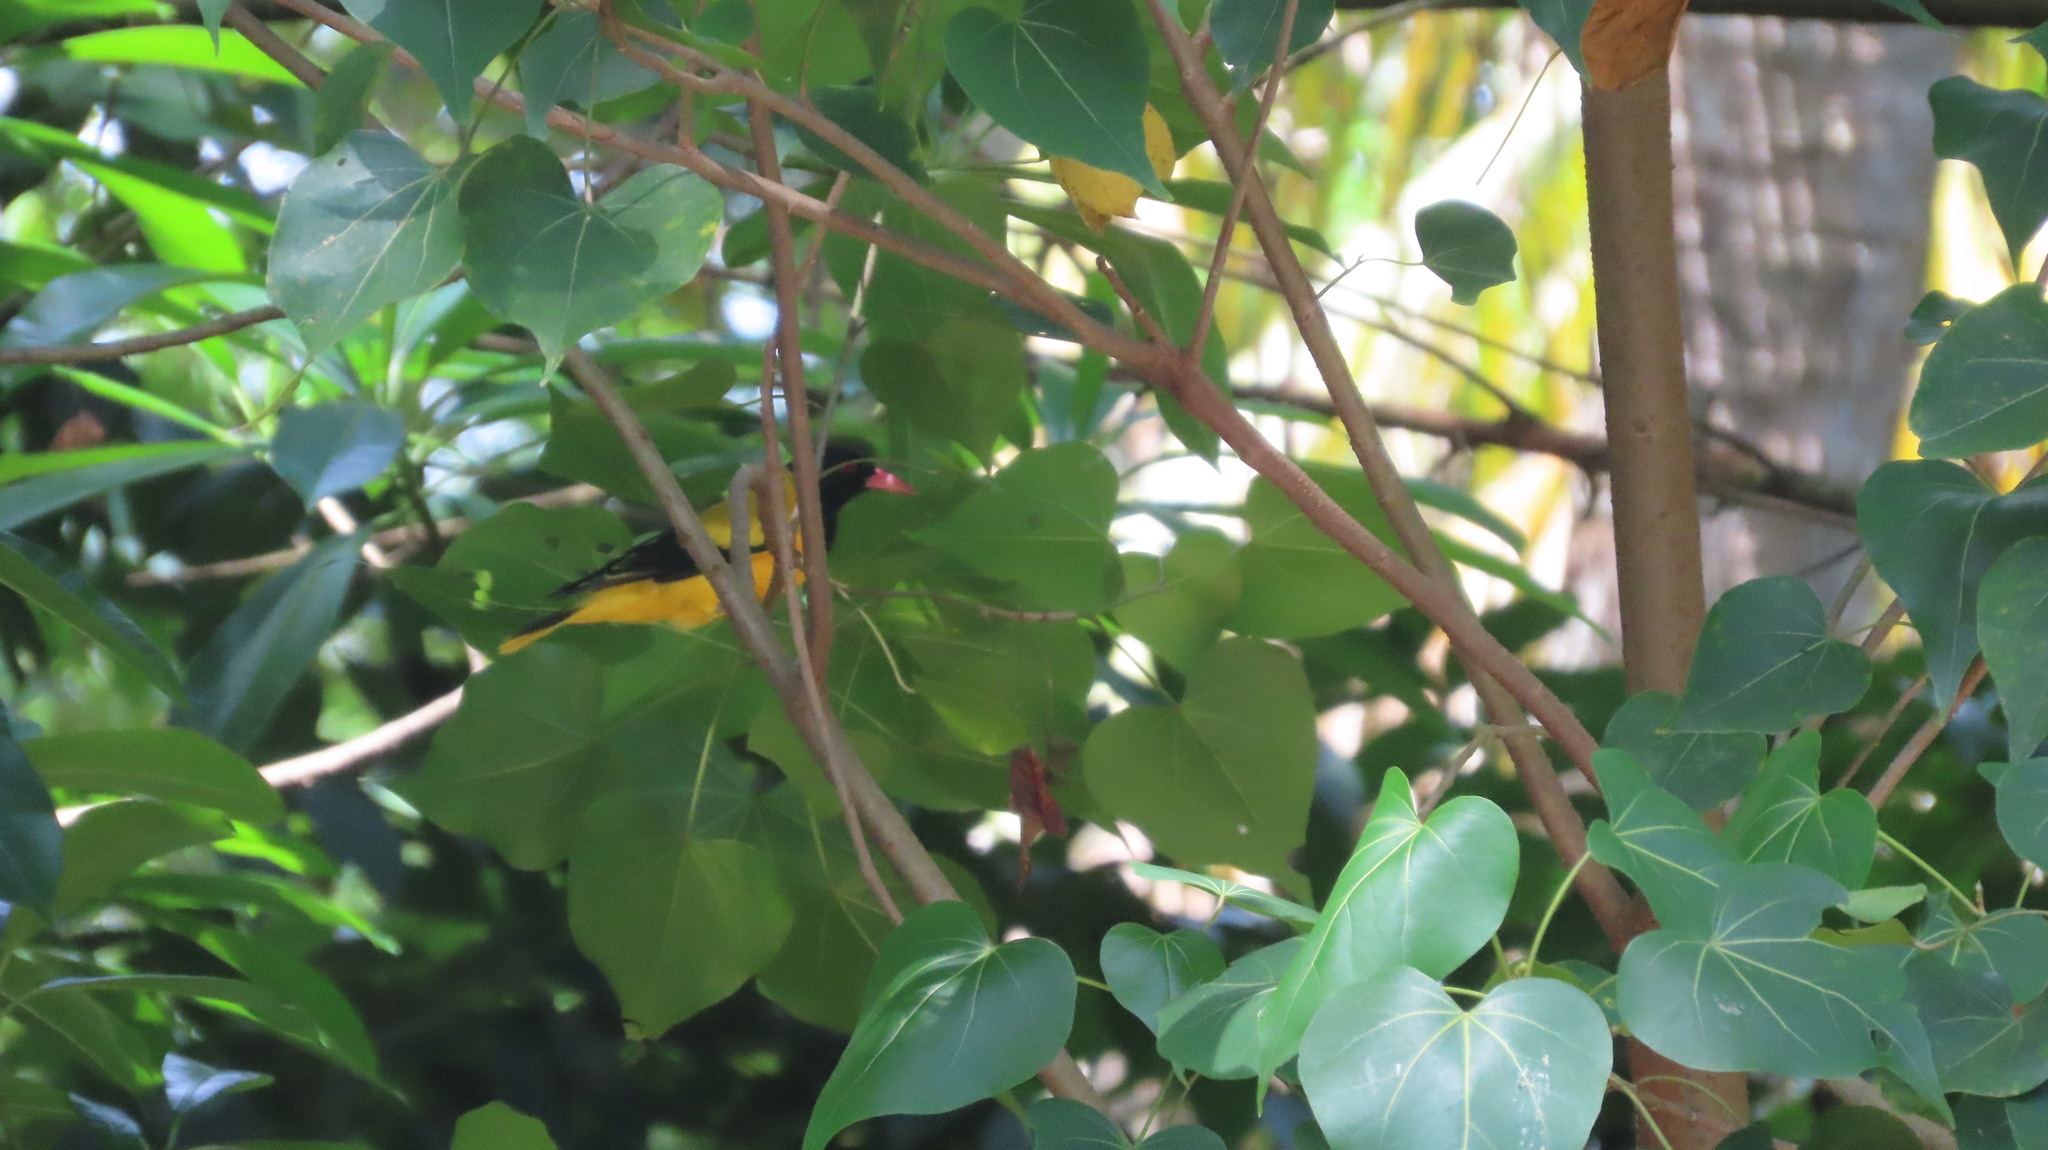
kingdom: Animalia
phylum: Chordata
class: Aves
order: Passeriformes
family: Oriolidae
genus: Oriolus
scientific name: Oriolus xanthornus
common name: Black-hooded oriole
